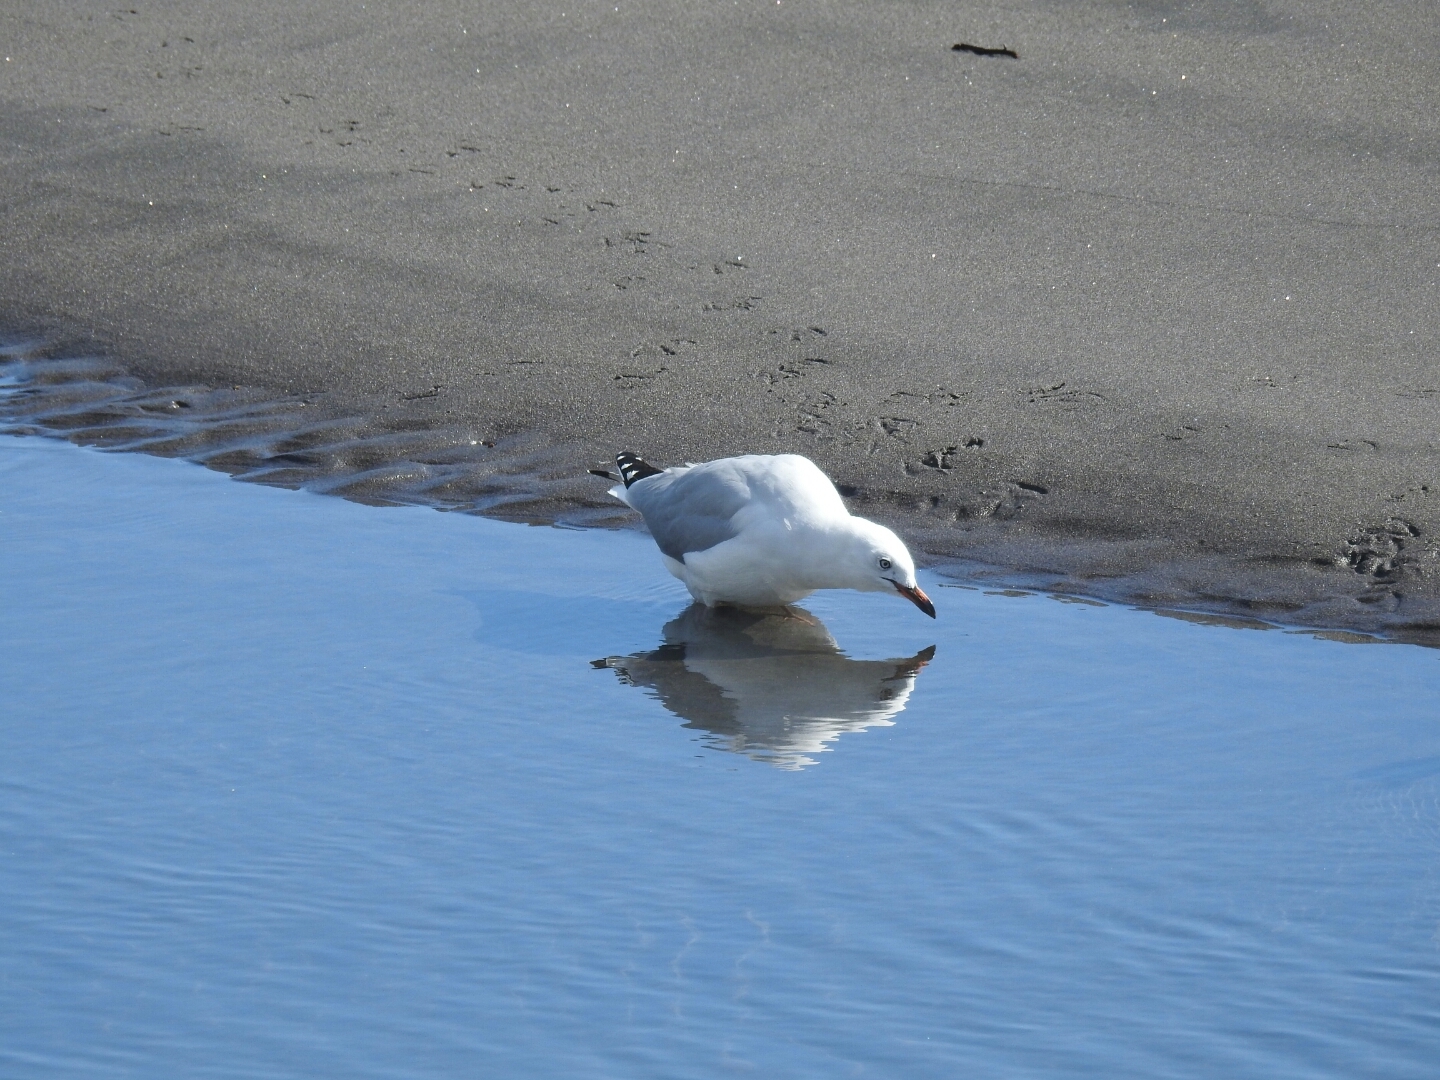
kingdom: Animalia
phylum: Chordata
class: Aves
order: Charadriiformes
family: Laridae
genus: Chroicocephalus
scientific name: Chroicocephalus novaehollandiae
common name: Silver gull
